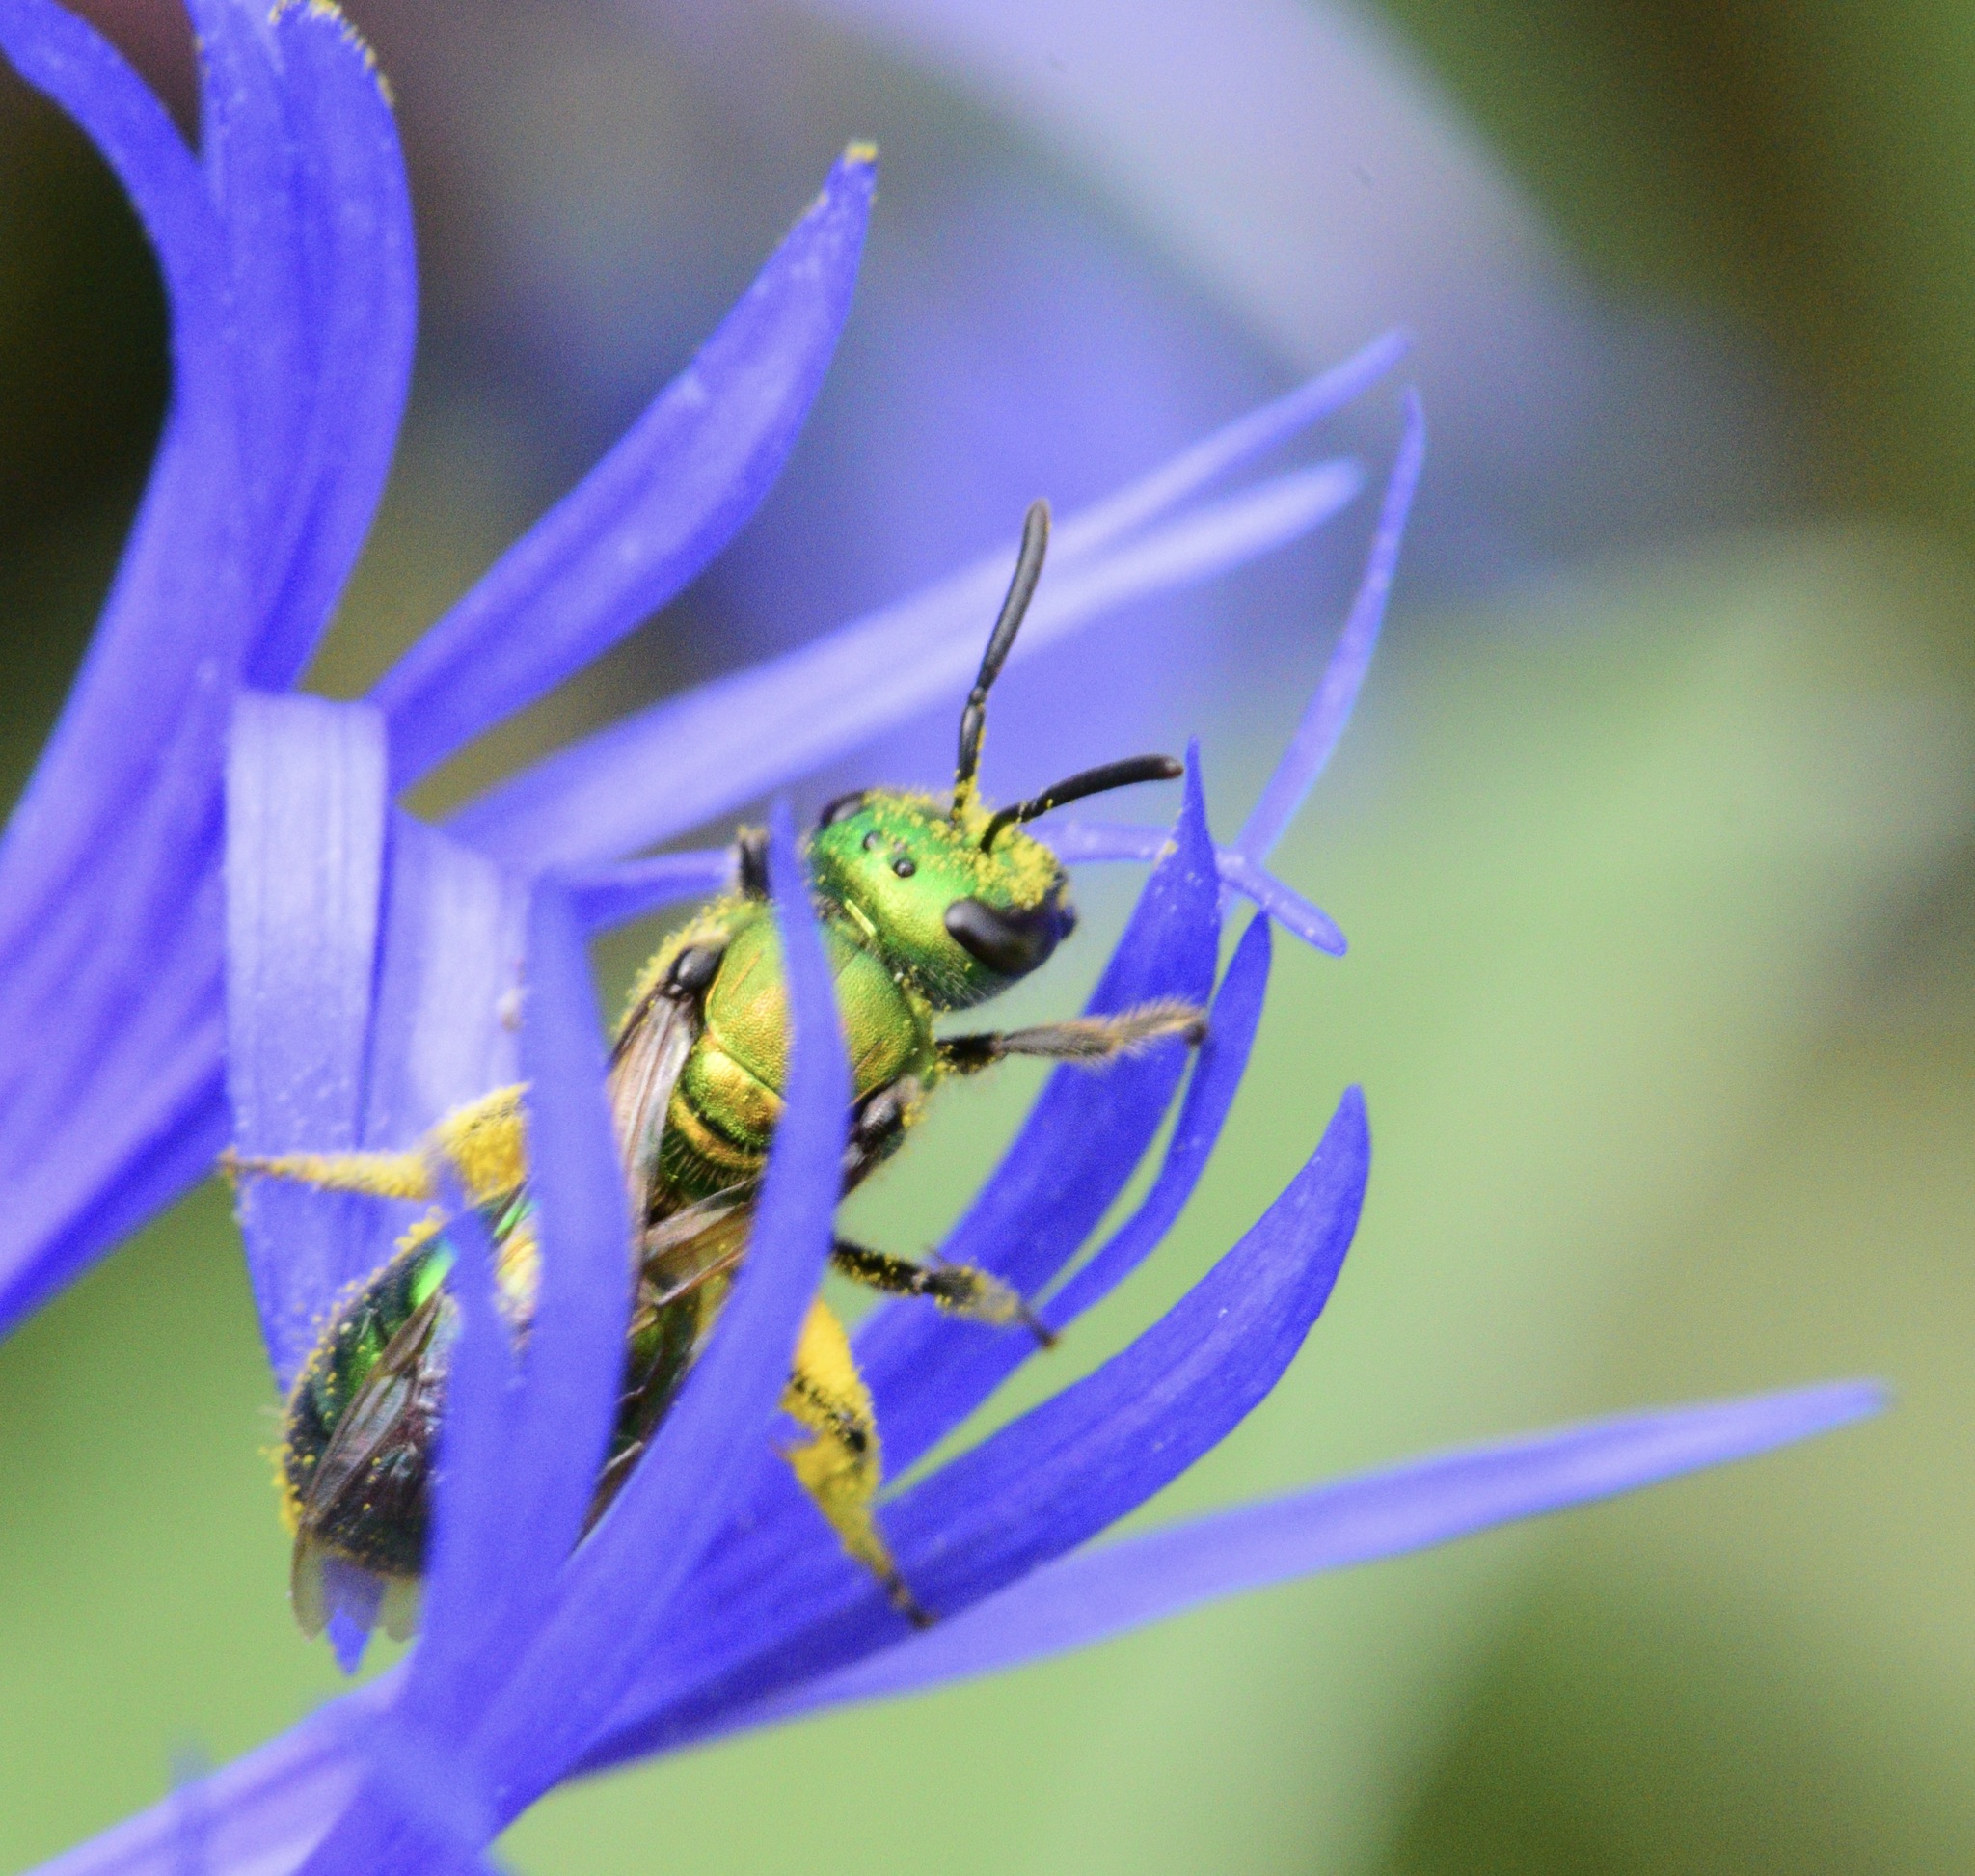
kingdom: Animalia
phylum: Arthropoda
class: Insecta
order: Hymenoptera
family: Halictidae
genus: Augochlora
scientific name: Augochlora pura
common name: Pure green sweat bee
